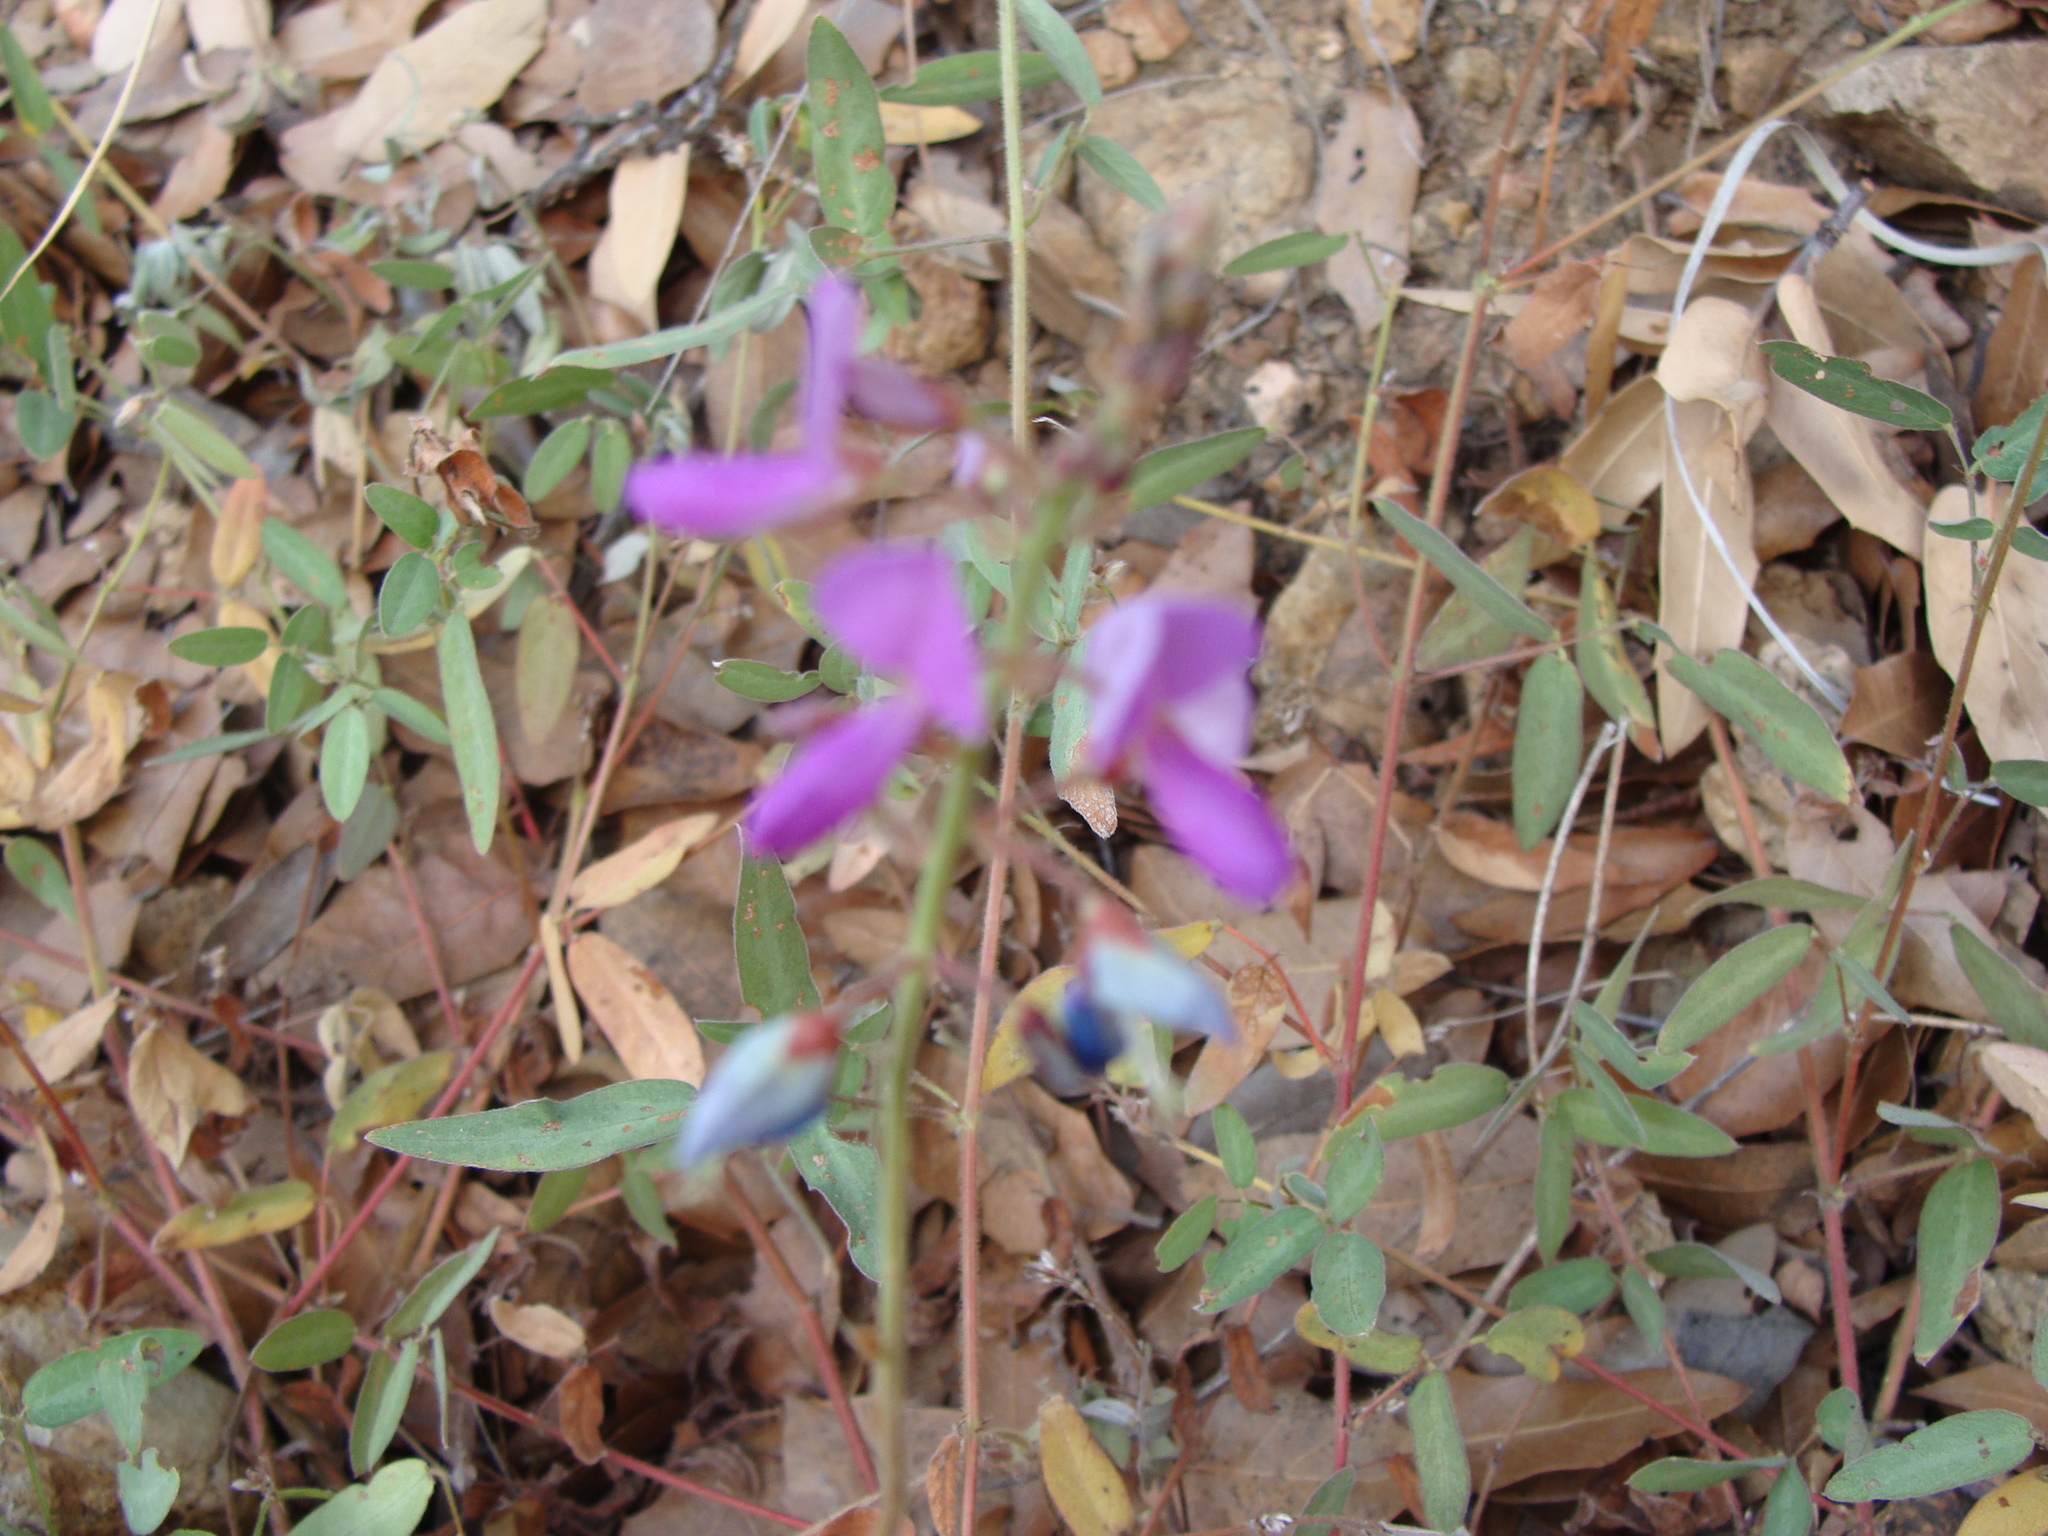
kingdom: Plantae
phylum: Tracheophyta
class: Magnoliopsida
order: Fabales
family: Fabaceae
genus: Desmodium
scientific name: Desmodium batocaulon
